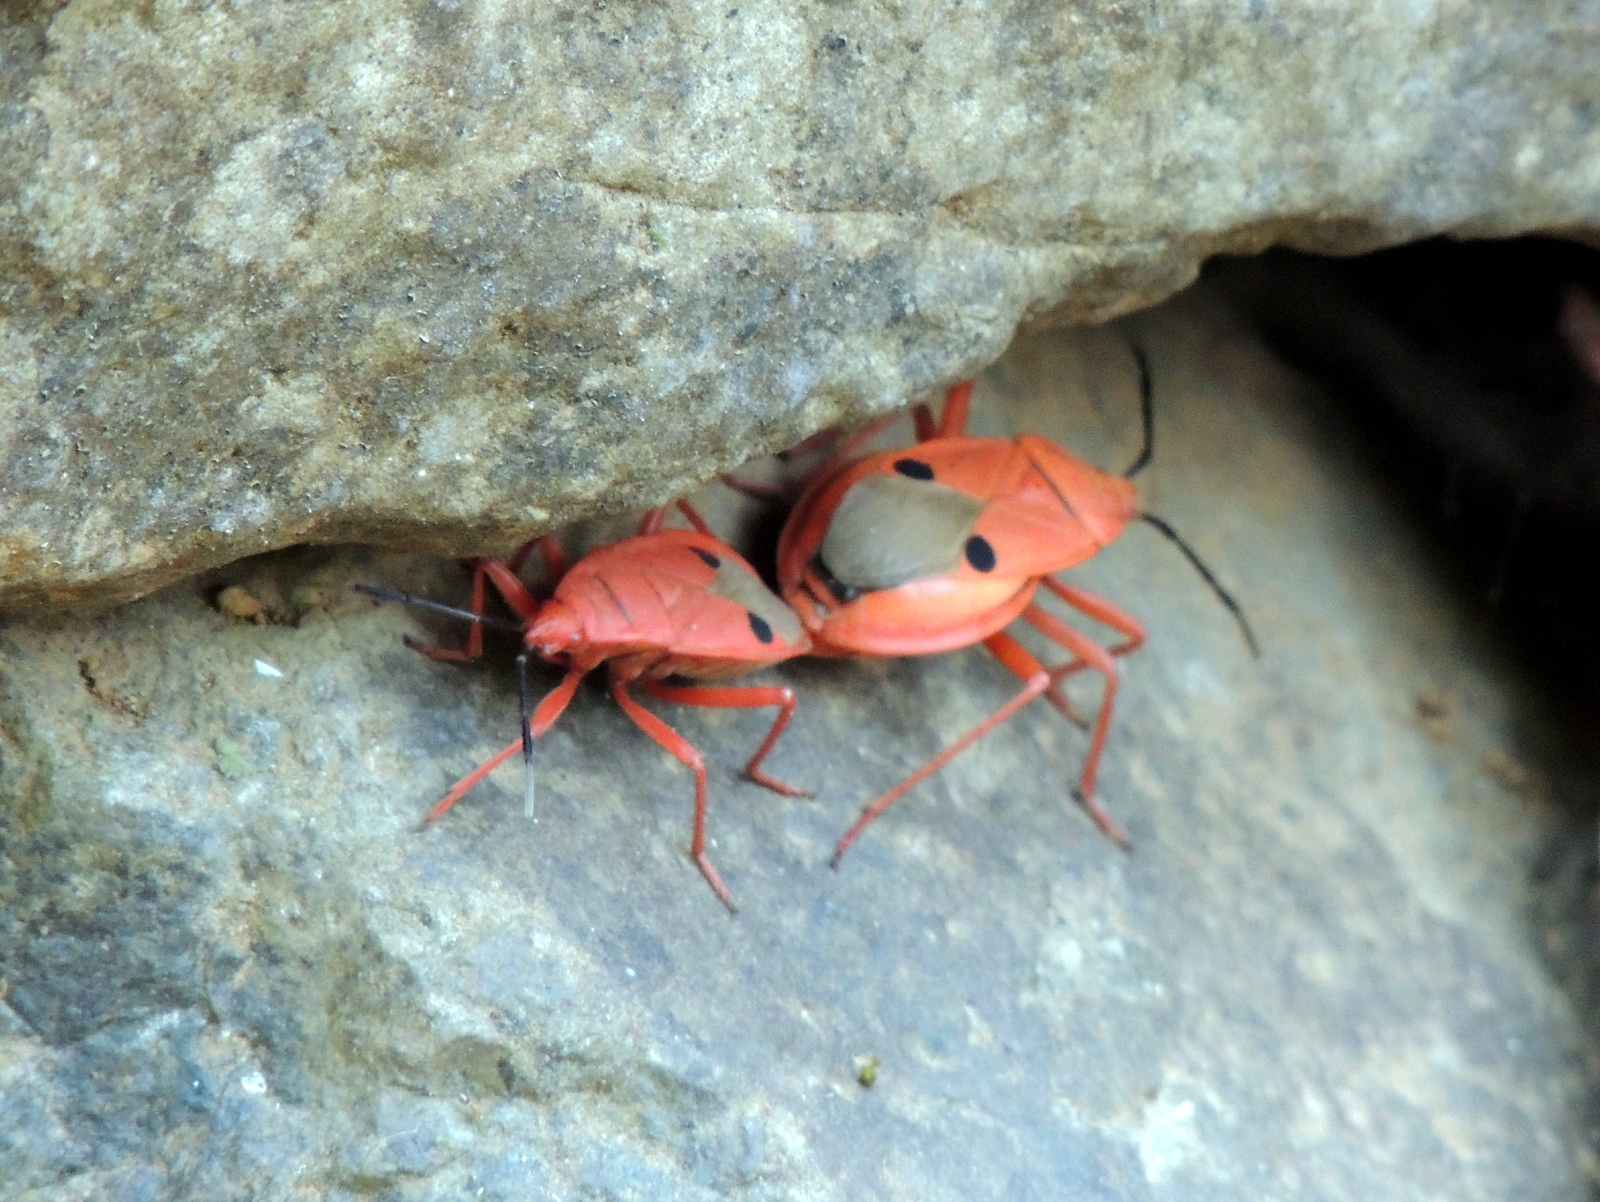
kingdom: Animalia
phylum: Arthropoda
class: Insecta
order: Hemiptera
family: Pyrrhocoridae
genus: Probergrothius
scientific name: Probergrothius nigricornis
